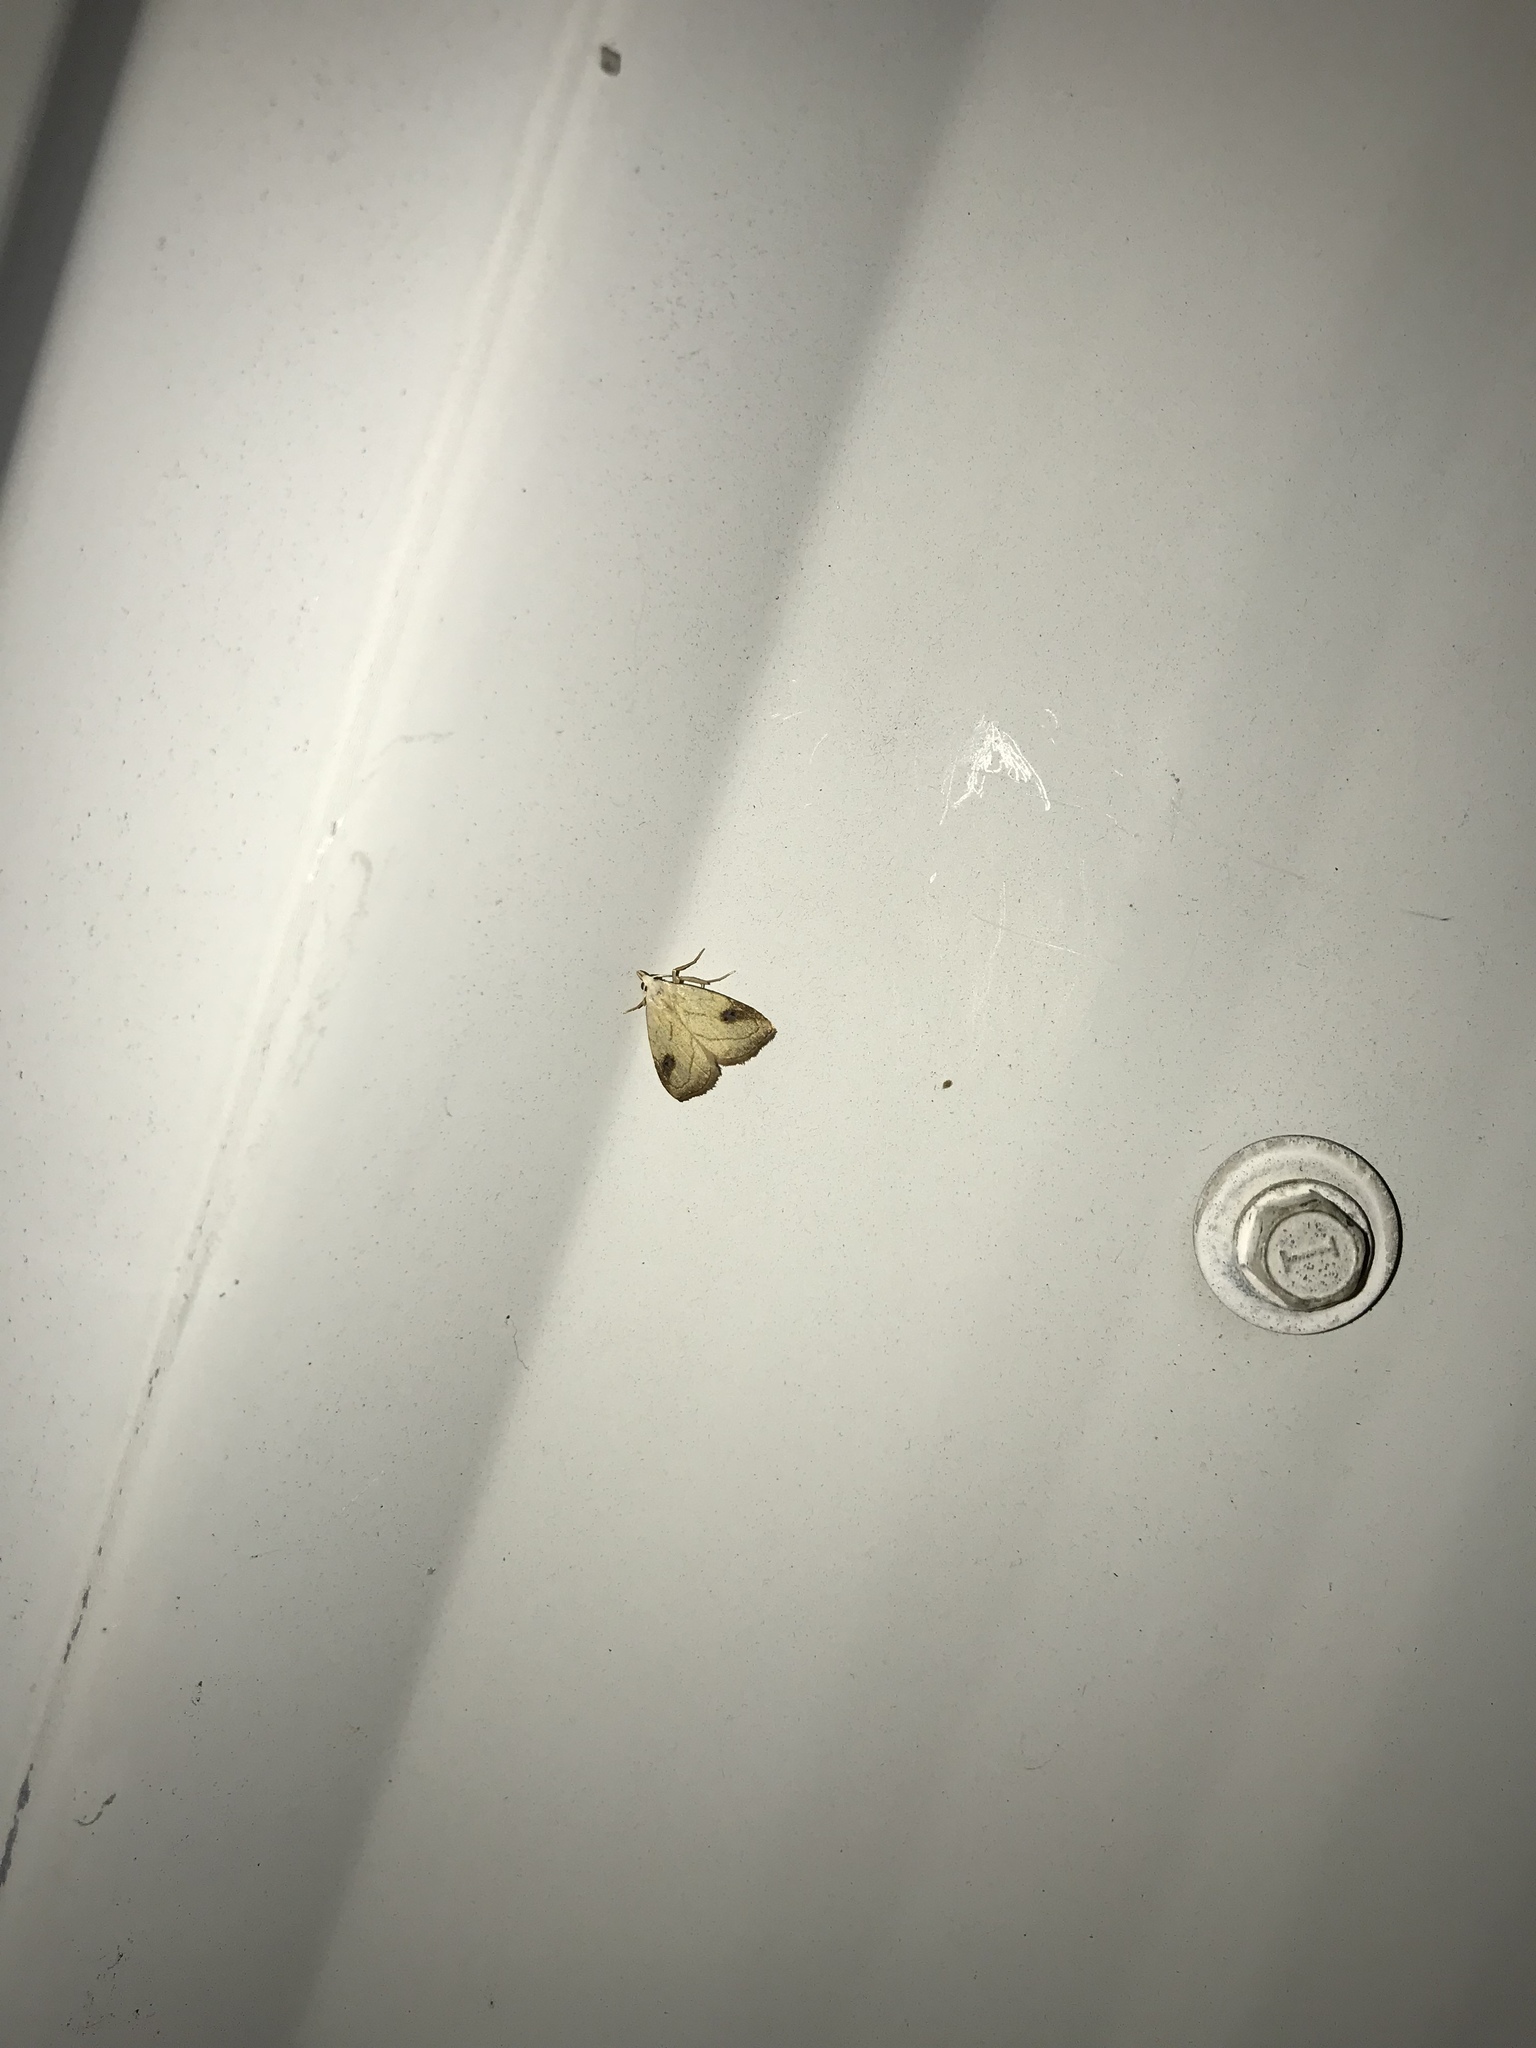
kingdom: Animalia
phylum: Arthropoda
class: Insecta
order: Lepidoptera
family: Erebidae
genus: Rivula
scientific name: Rivula propinqualis
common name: Spotted grass moth
